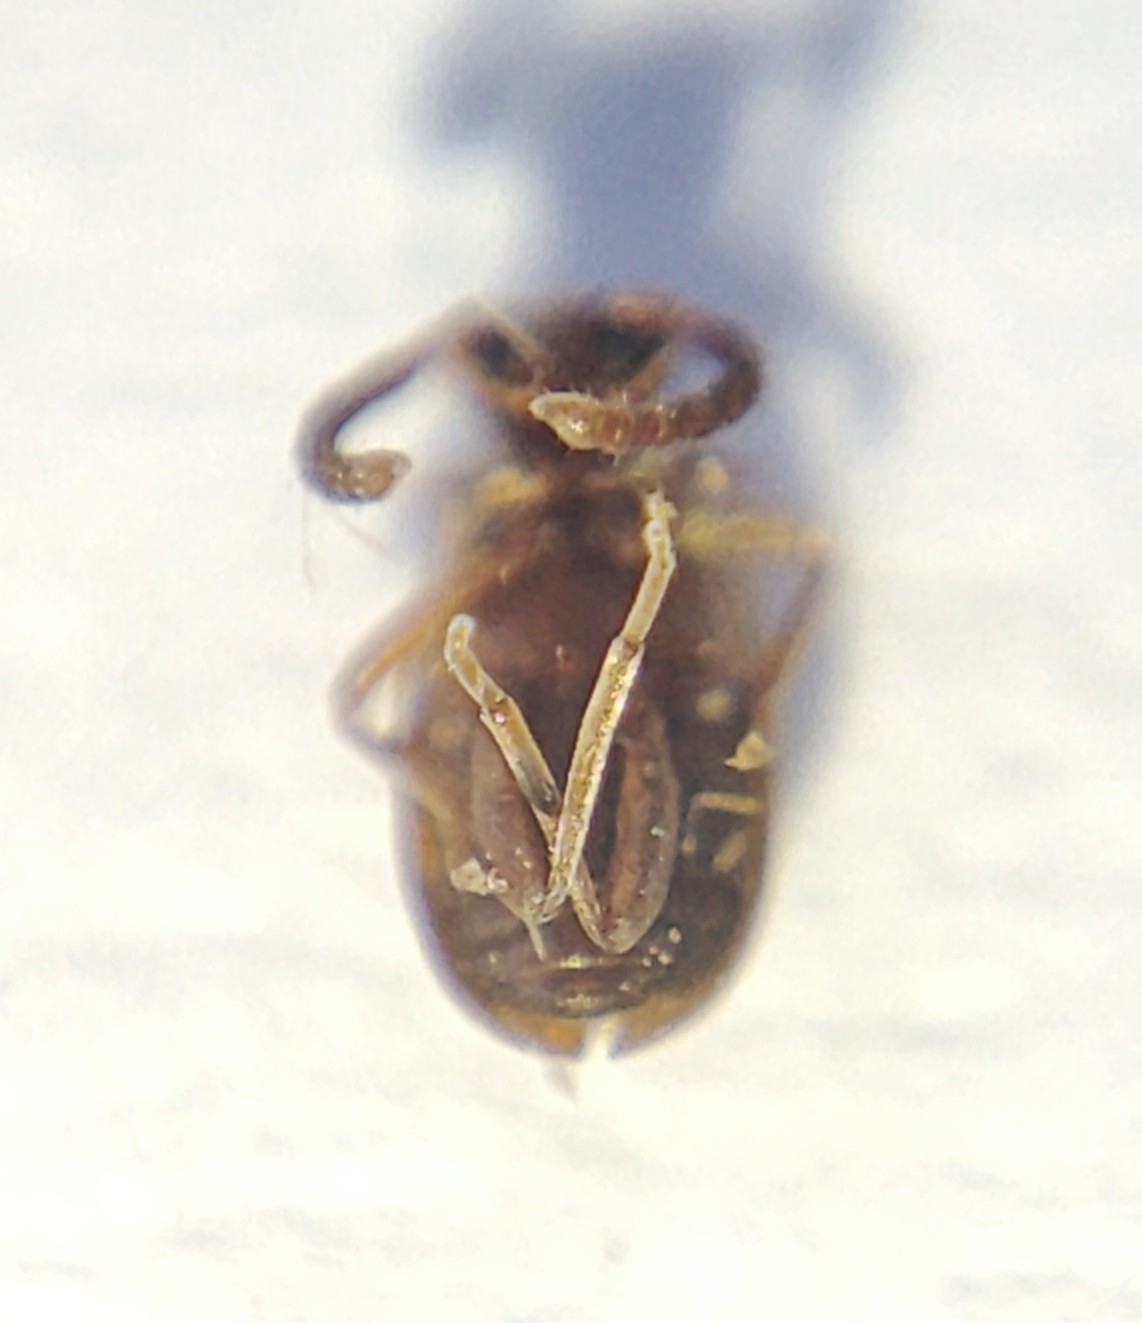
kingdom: Animalia
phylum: Arthropoda
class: Insecta
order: Coleoptera
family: Aderidae
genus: Aderus
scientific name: Aderus populneus
